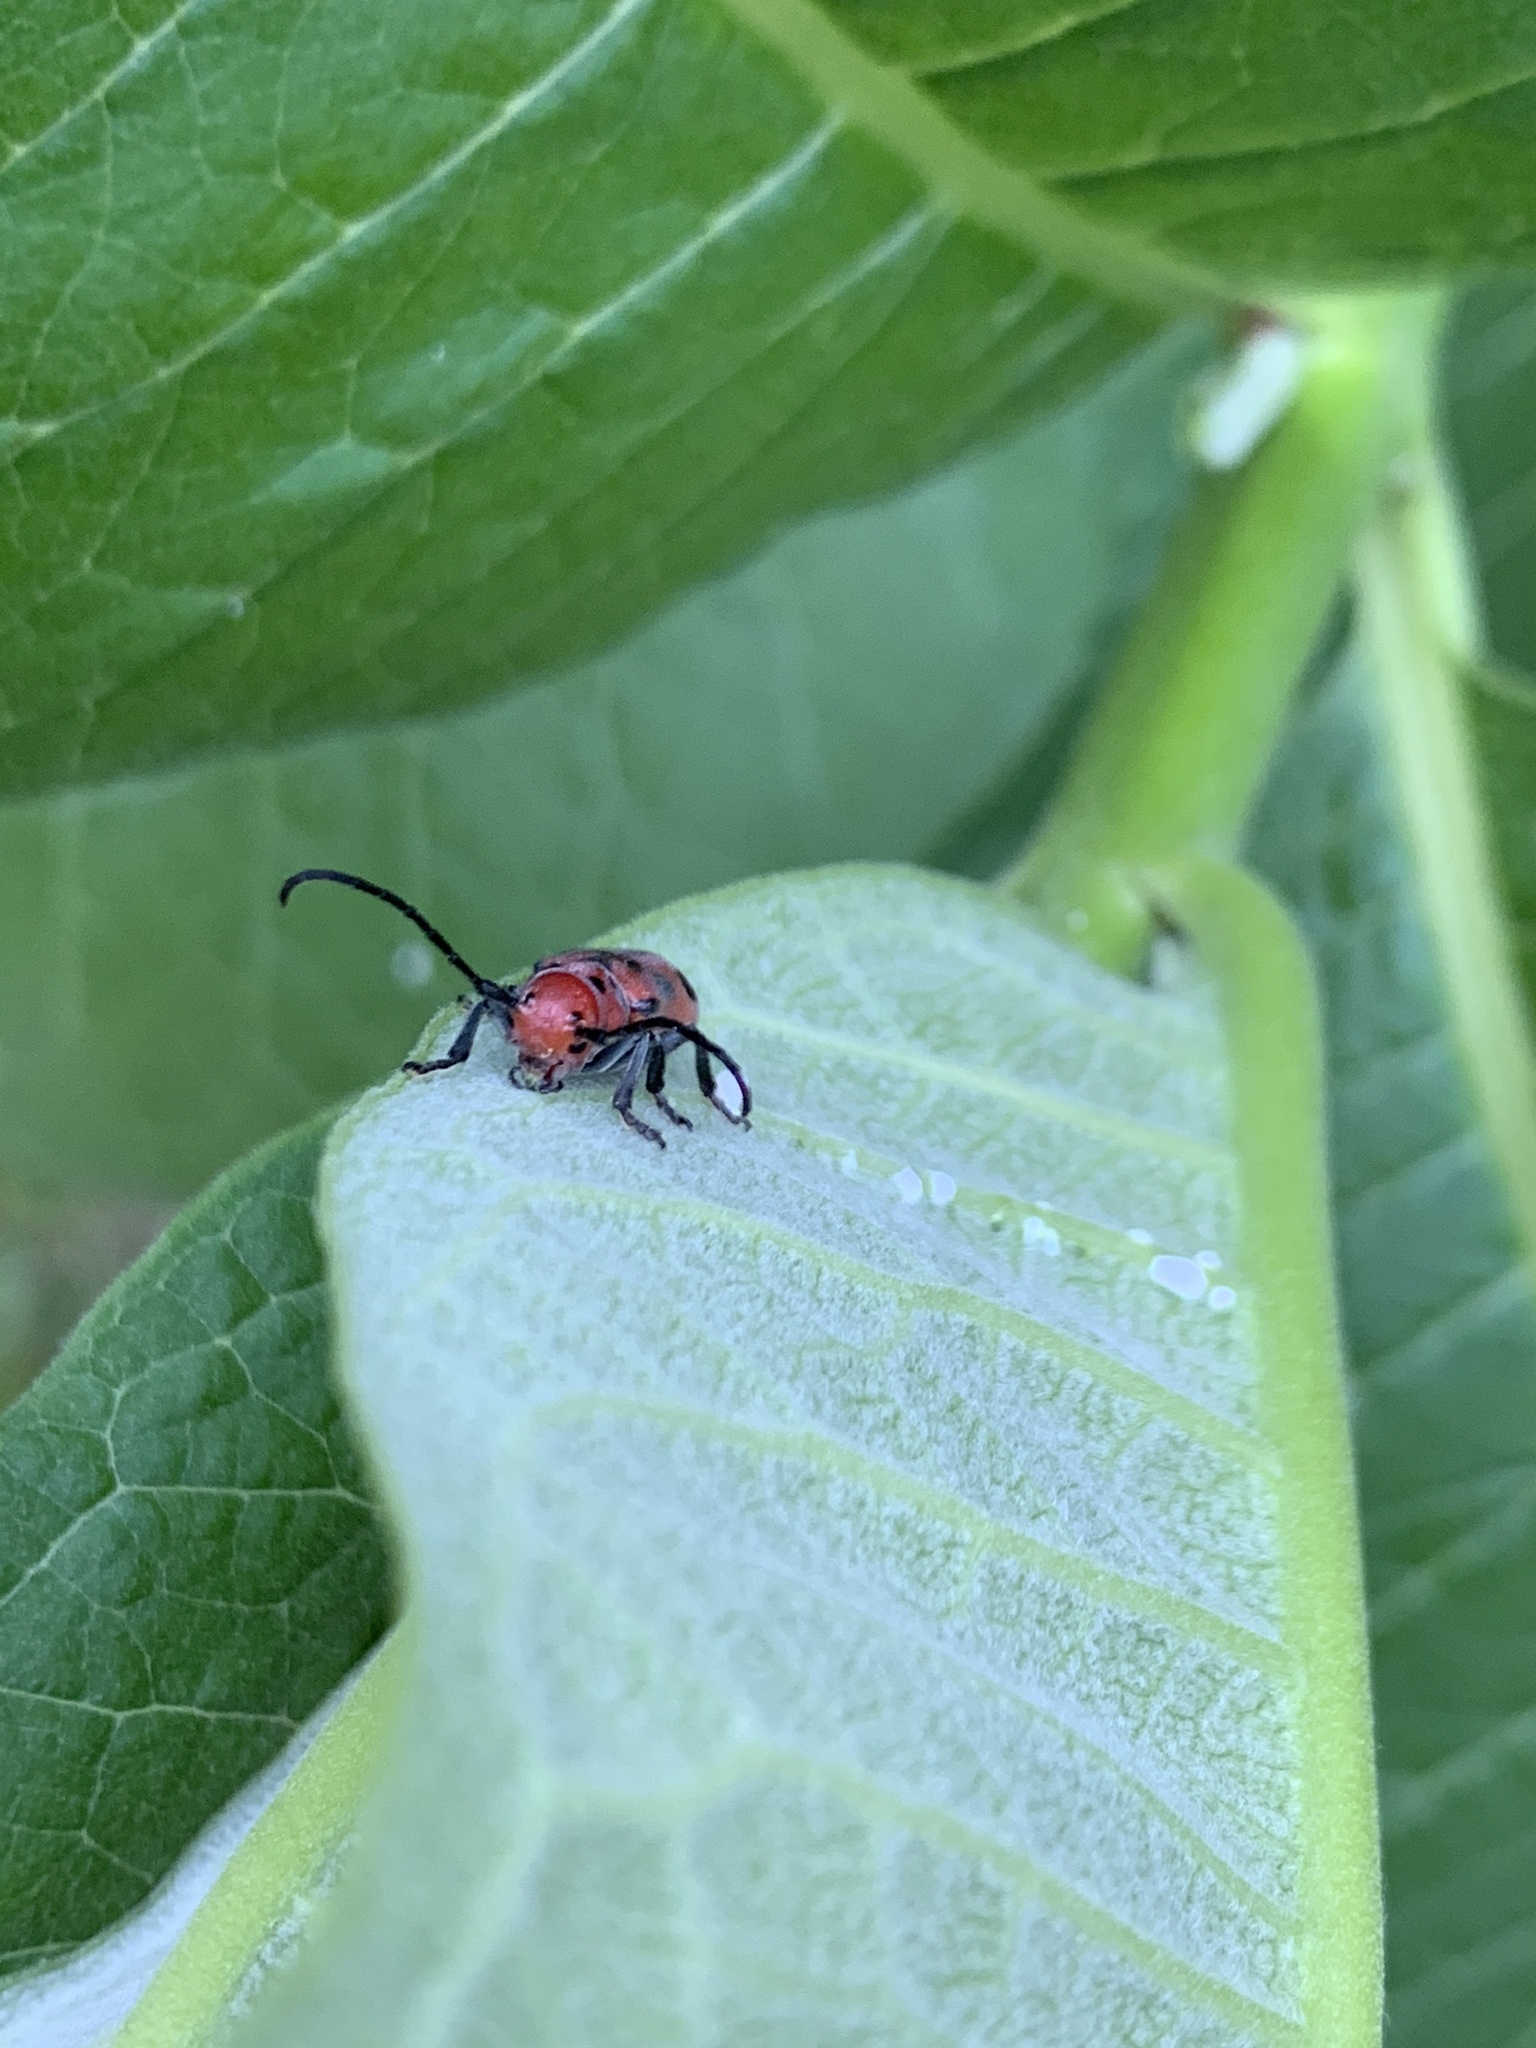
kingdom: Animalia
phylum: Arthropoda
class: Insecta
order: Coleoptera
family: Cerambycidae
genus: Tetraopes
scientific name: Tetraopes tetrophthalmus
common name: Red milkweed beetle
